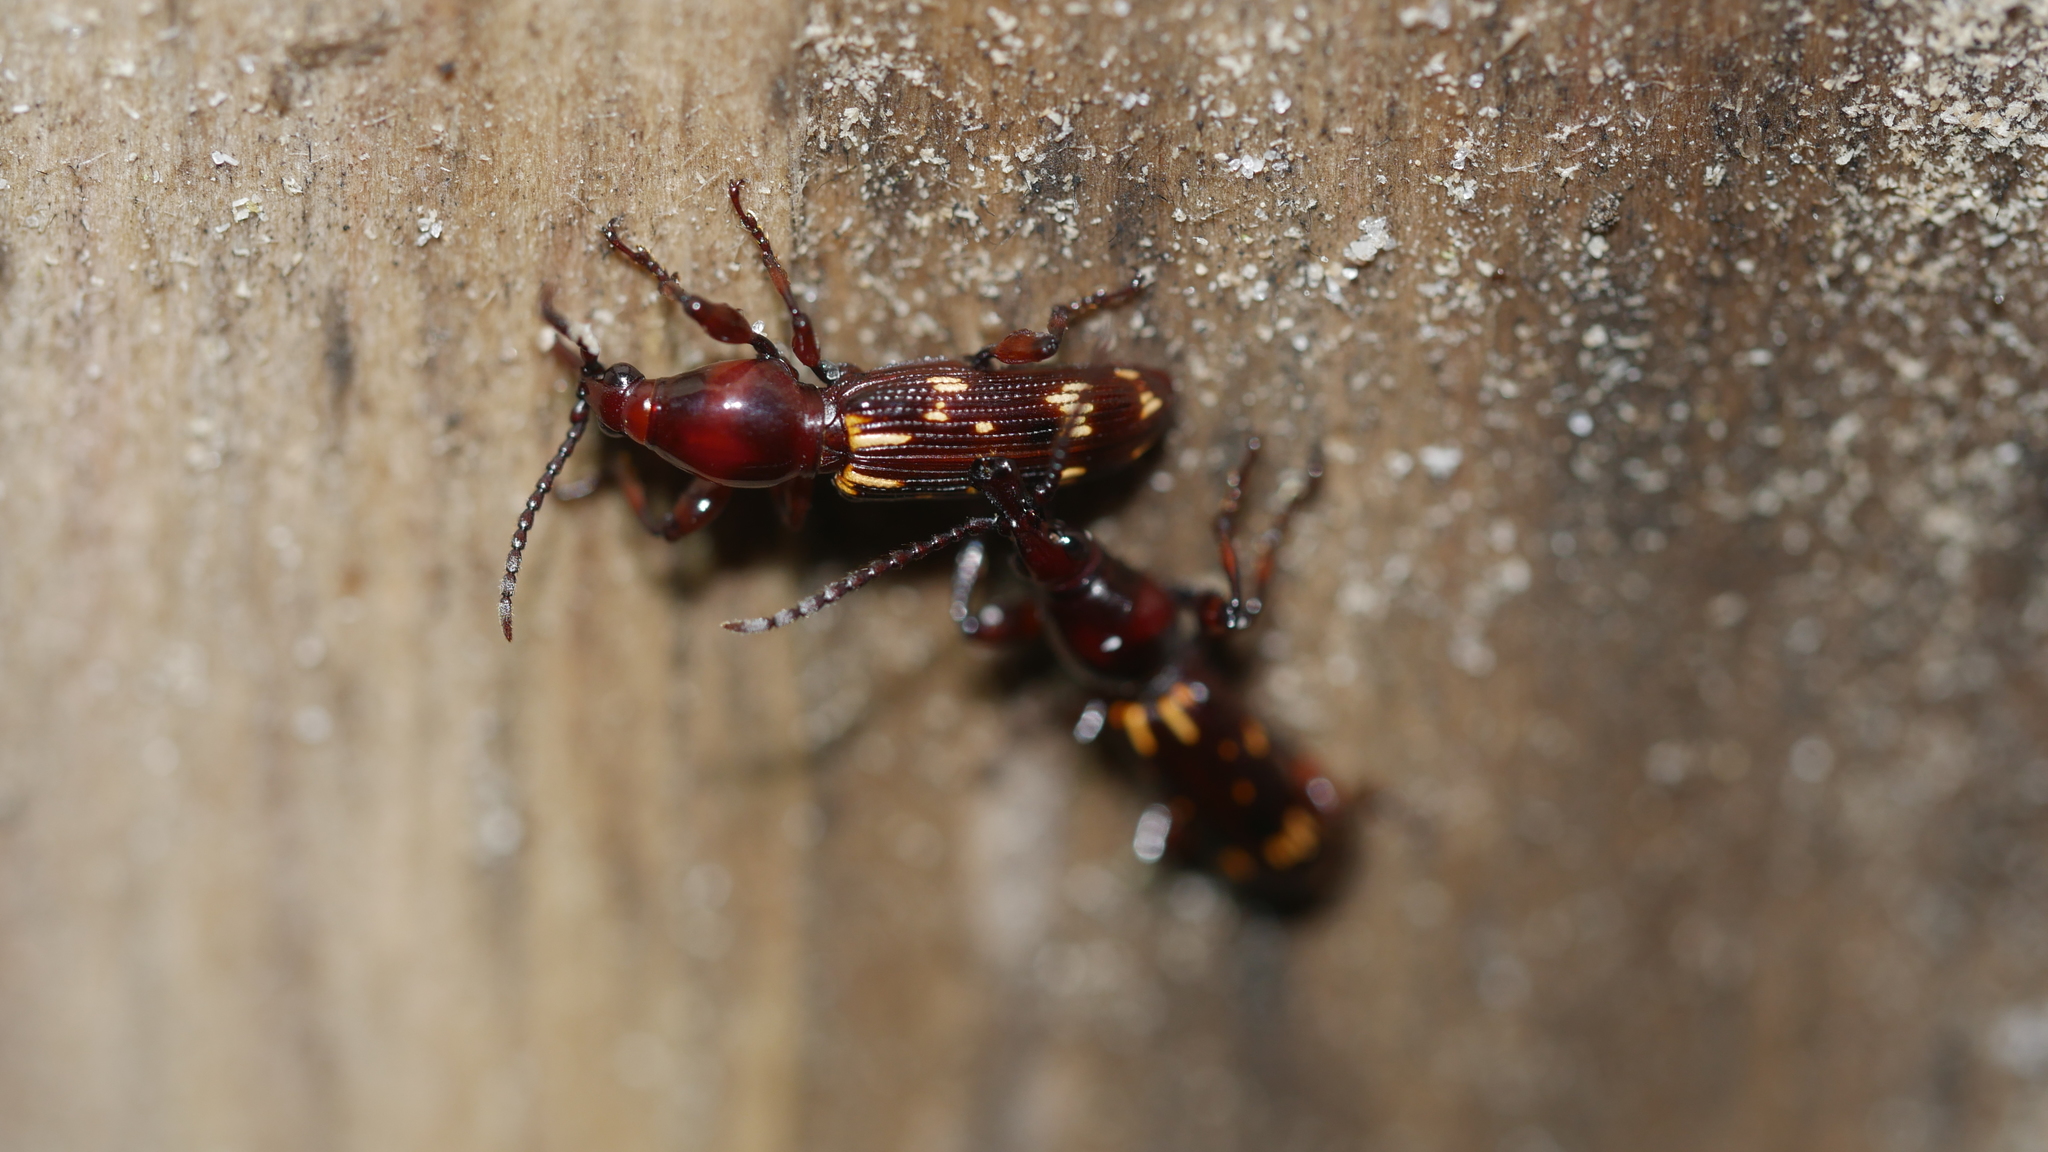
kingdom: Animalia
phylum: Arthropoda
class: Insecta
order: Coleoptera
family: Brentidae
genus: Arrenodes
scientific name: Arrenodes minutus
